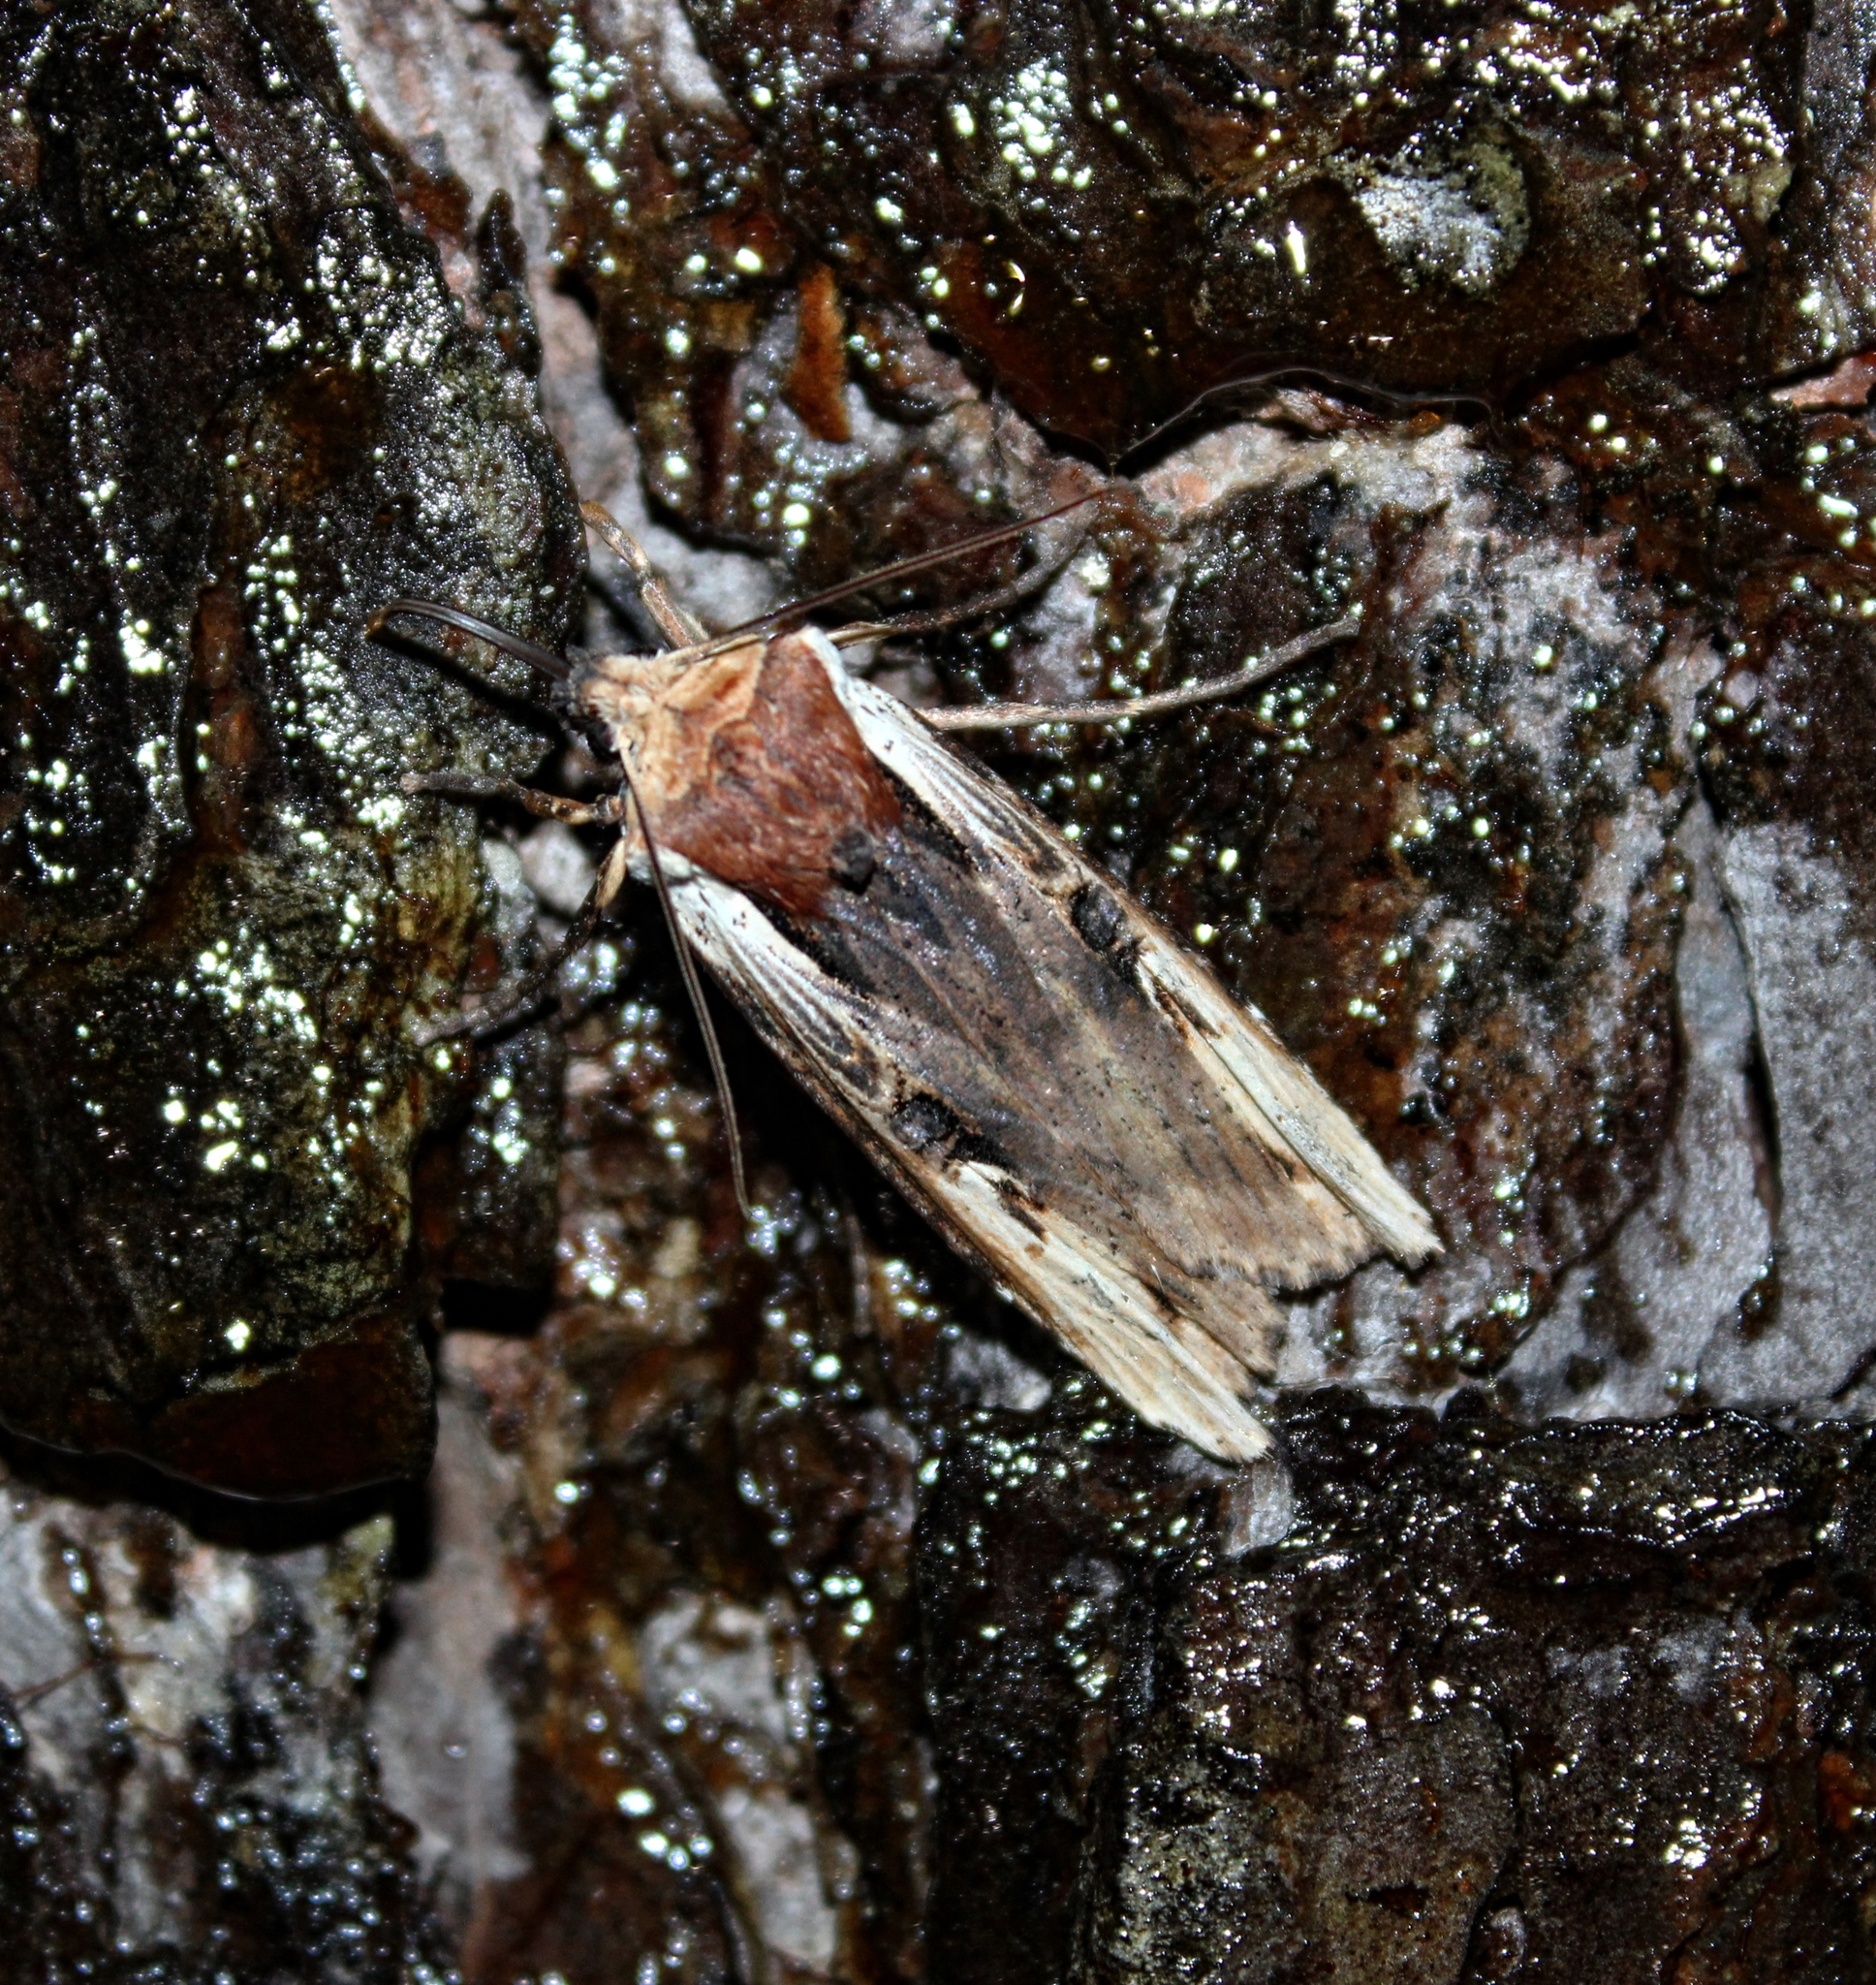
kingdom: Animalia
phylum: Arthropoda
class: Insecta
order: Lepidoptera
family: Noctuidae
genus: Xylena
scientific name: Xylena curvimacula
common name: Dot-and-dash swordgrass moth
